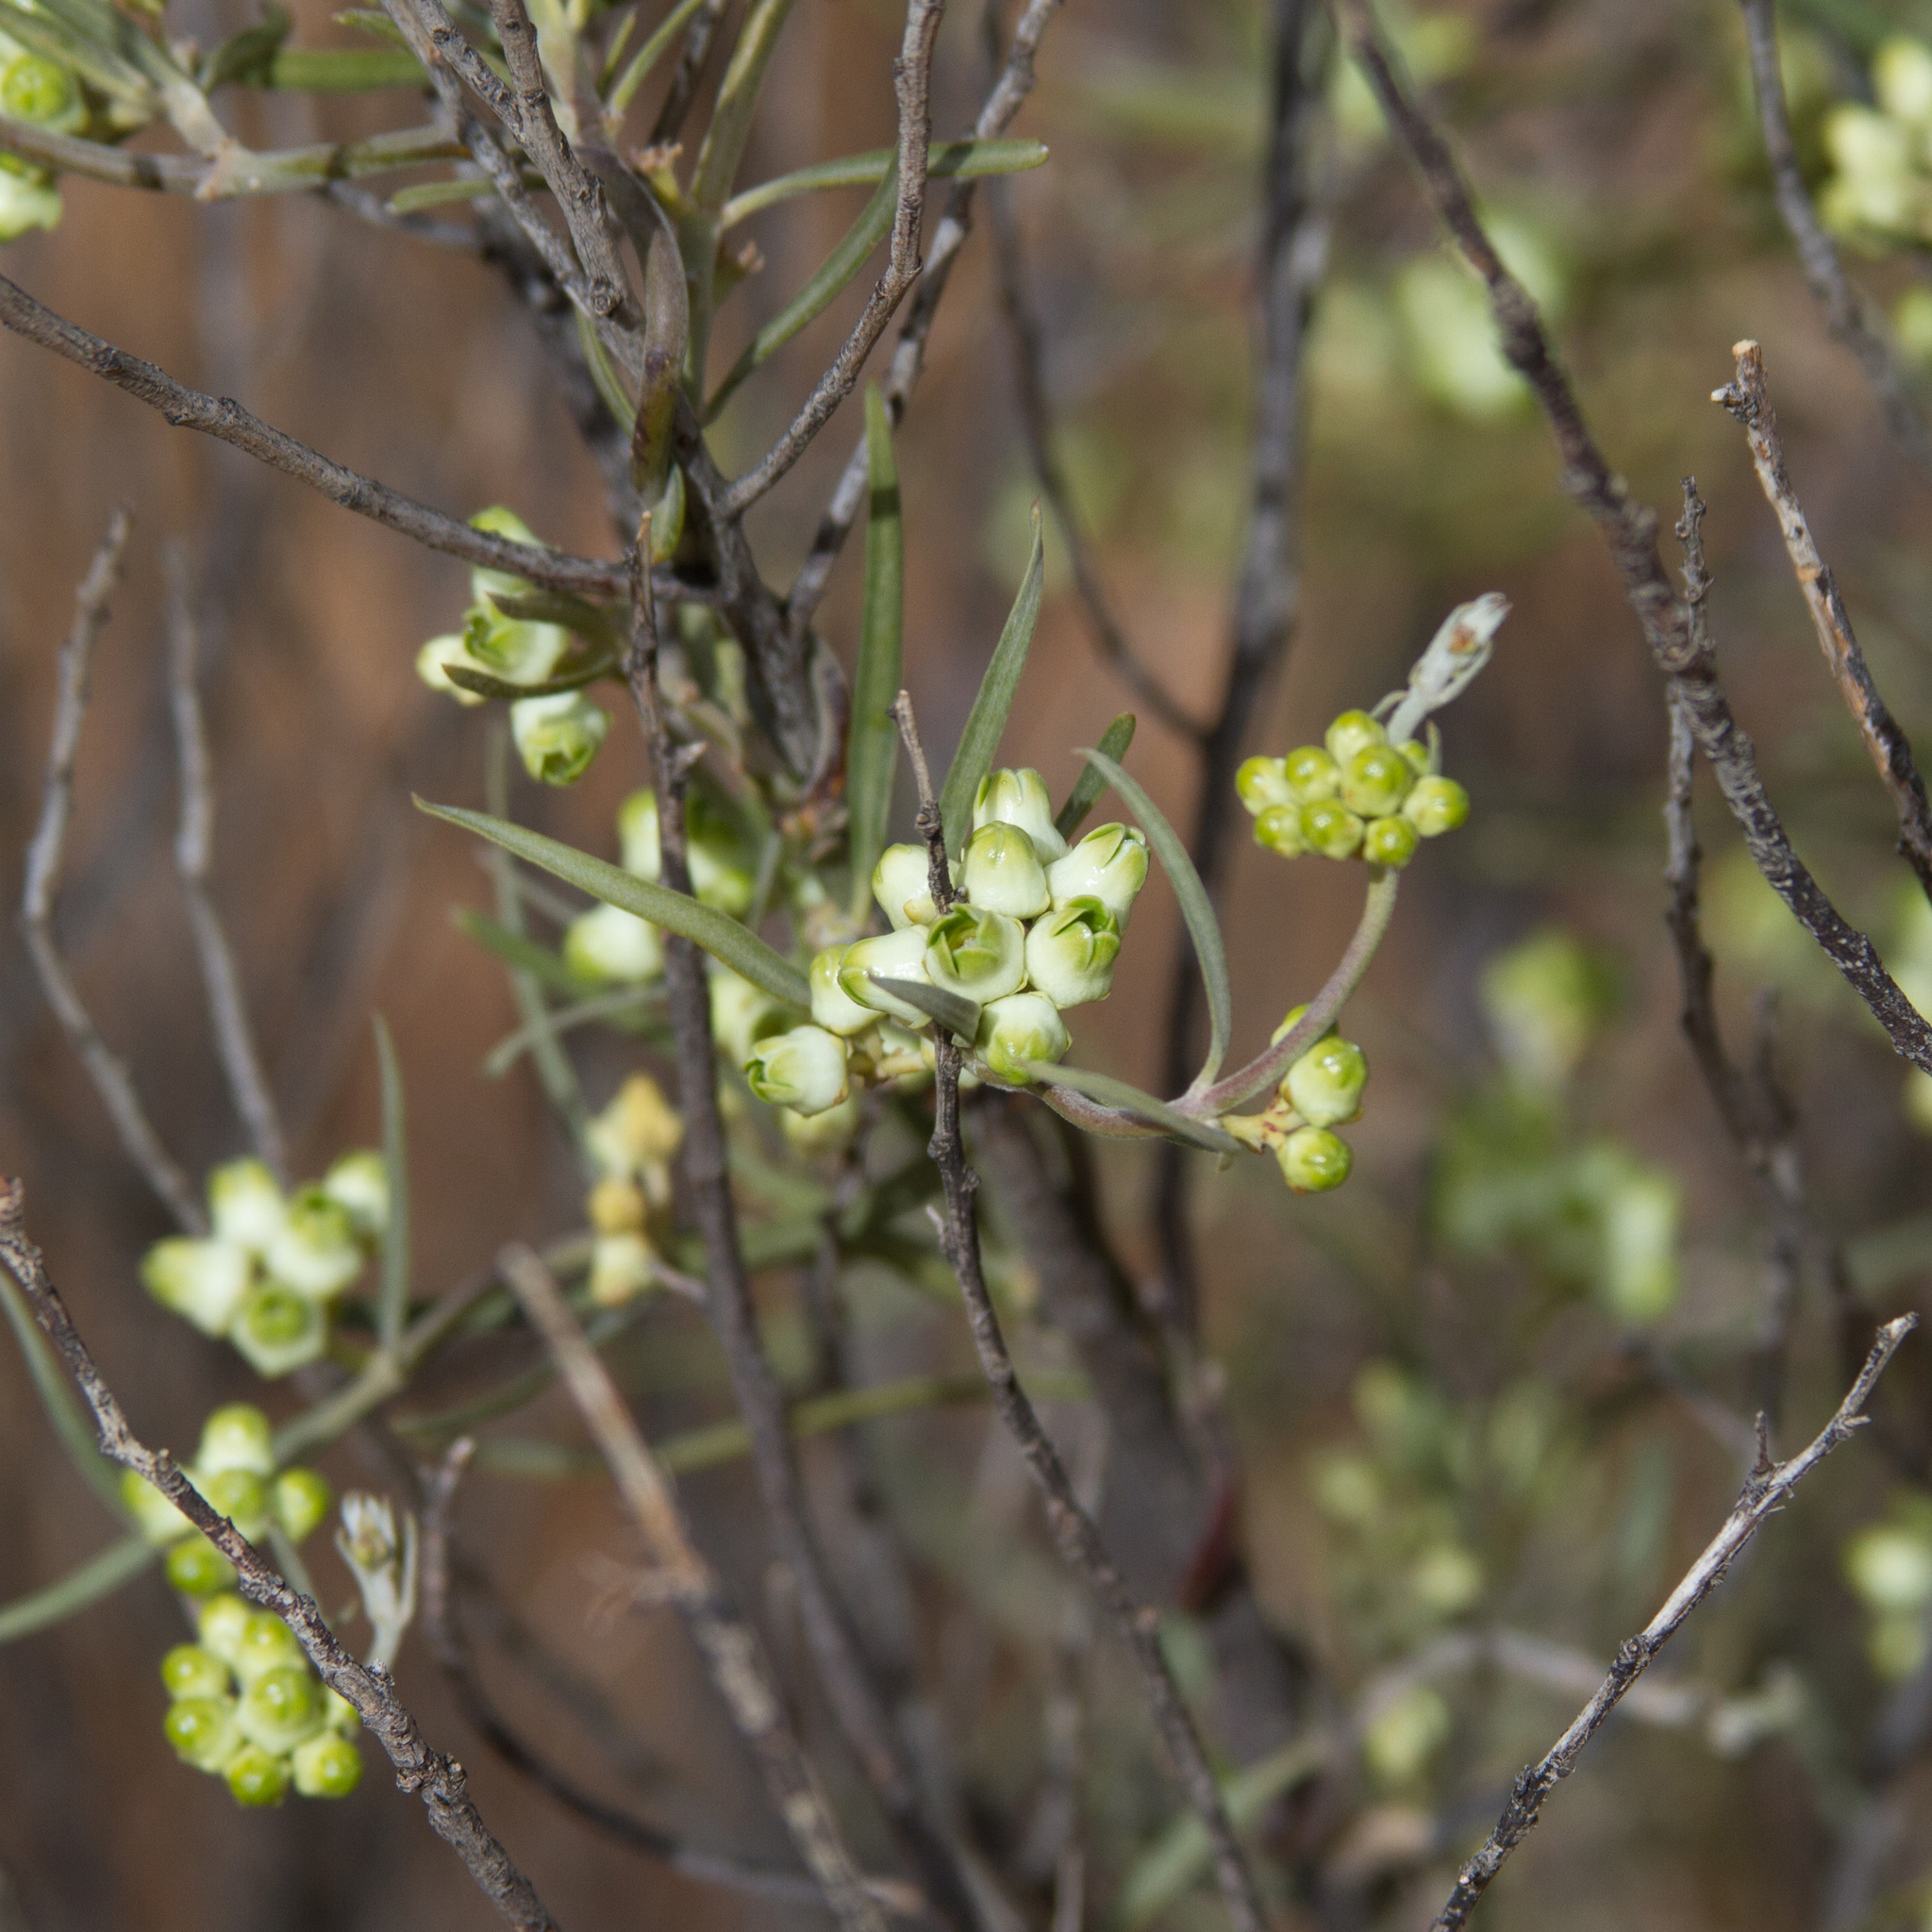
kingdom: Plantae
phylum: Tracheophyta
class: Magnoliopsida
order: Gentianales
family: Apocynaceae
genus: Leichhardtia
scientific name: Leichhardtia australis
